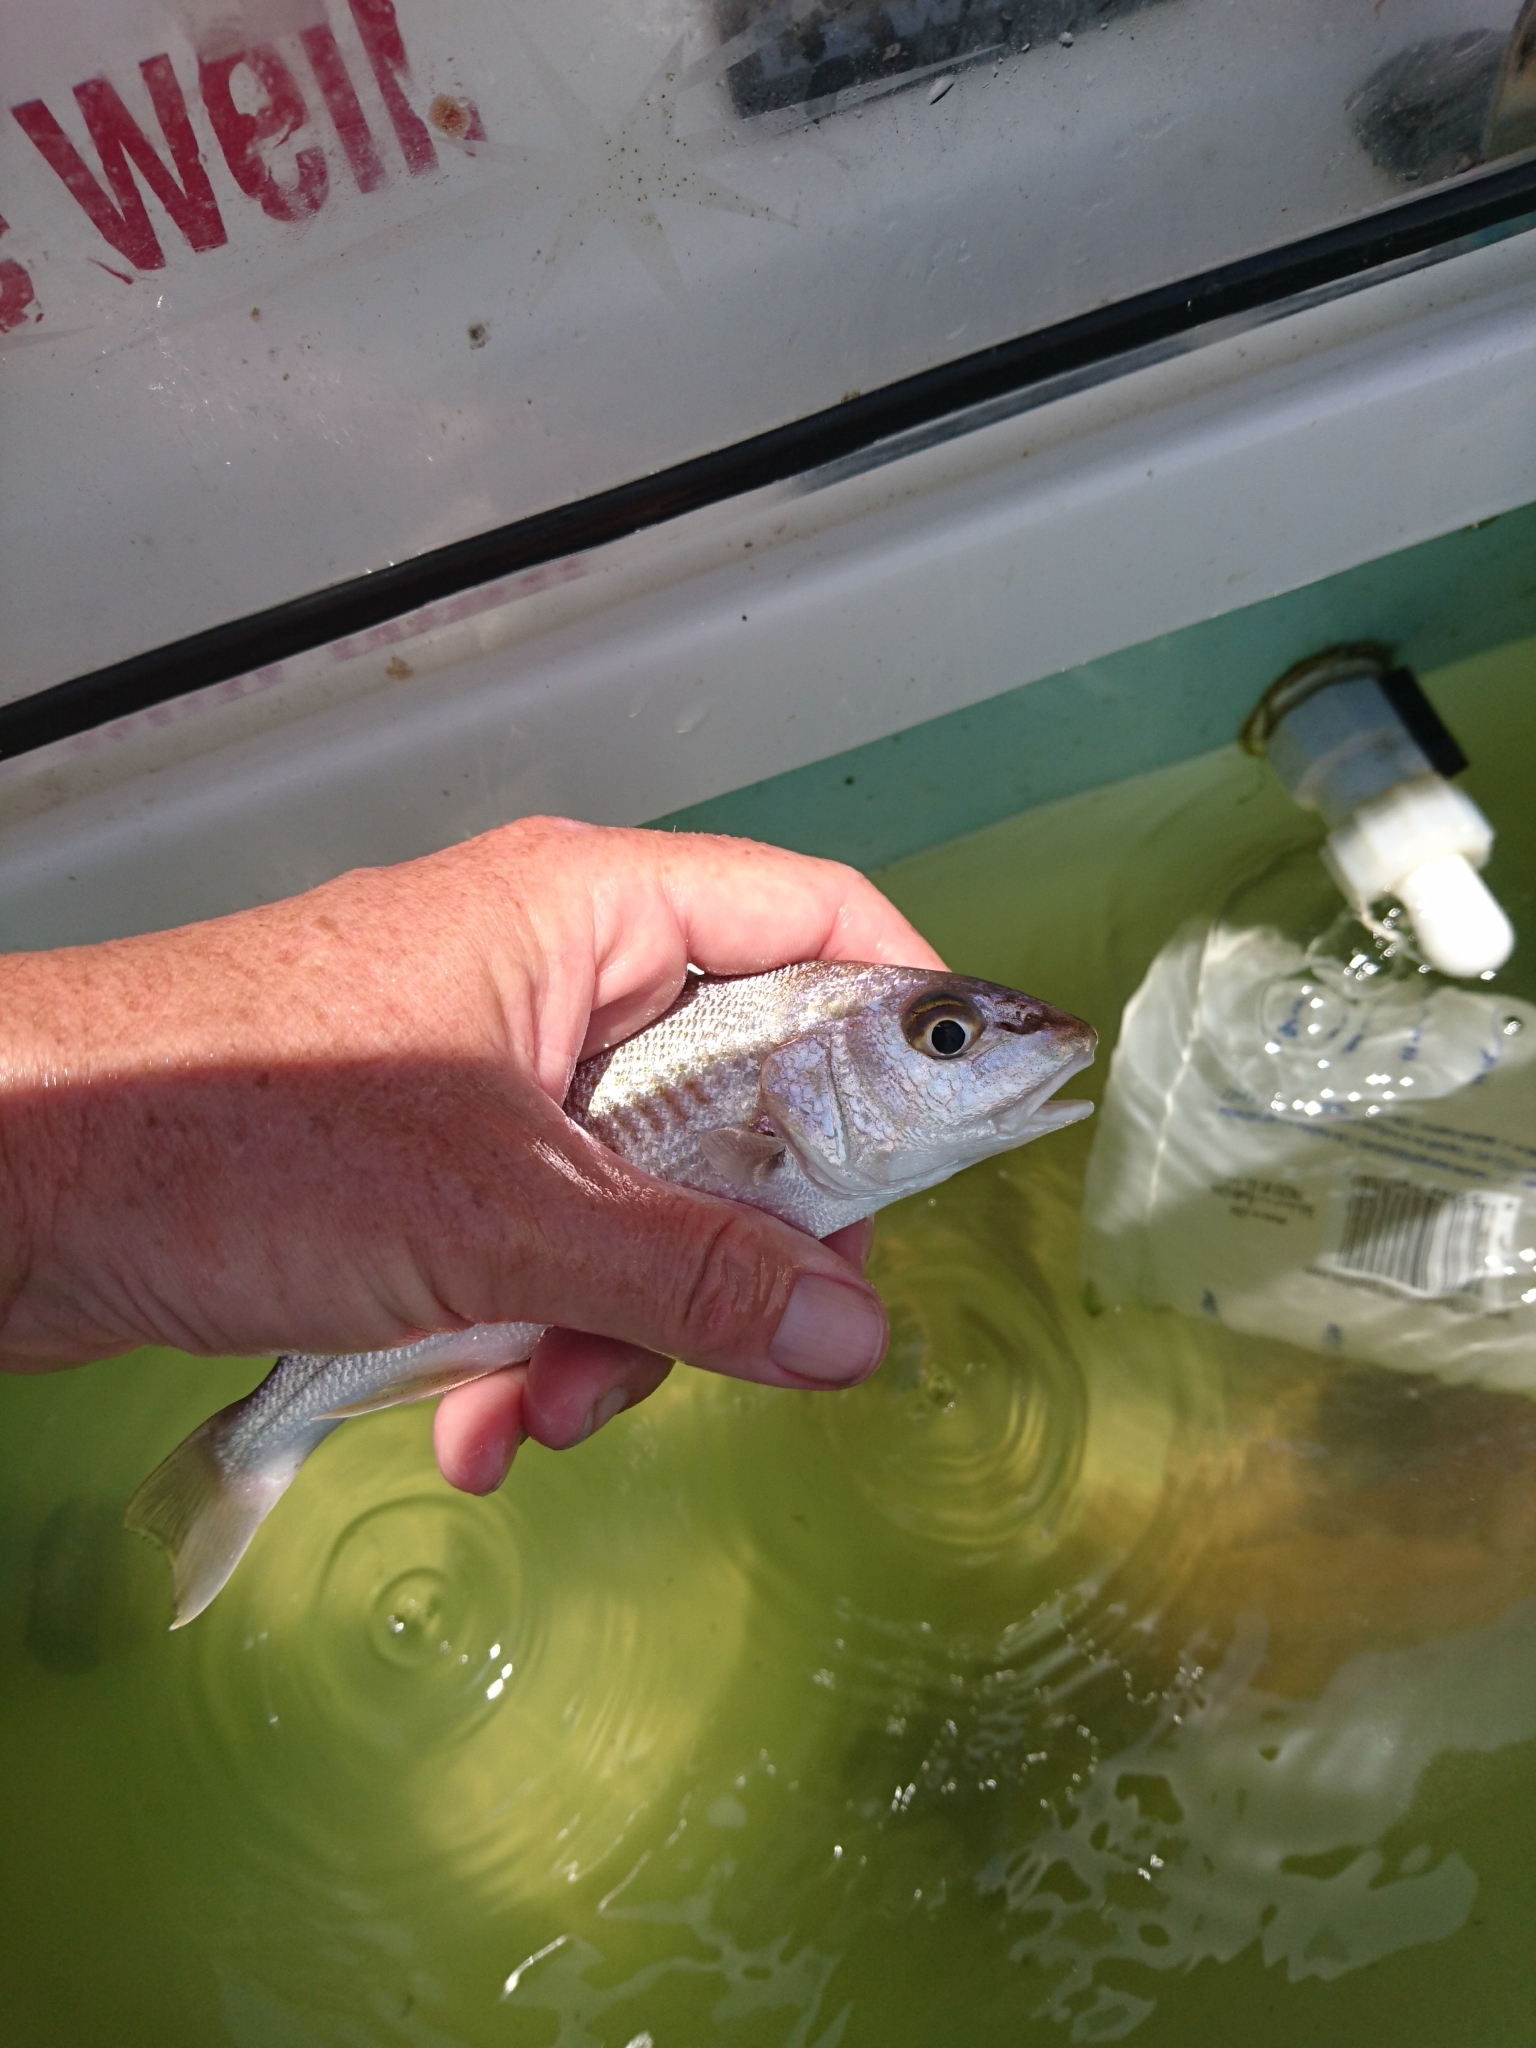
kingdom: Animalia
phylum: Chordata
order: Perciformes
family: Sciaenidae
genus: Micropogonias
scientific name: Micropogonias undulatus
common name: Atlantic croaker
